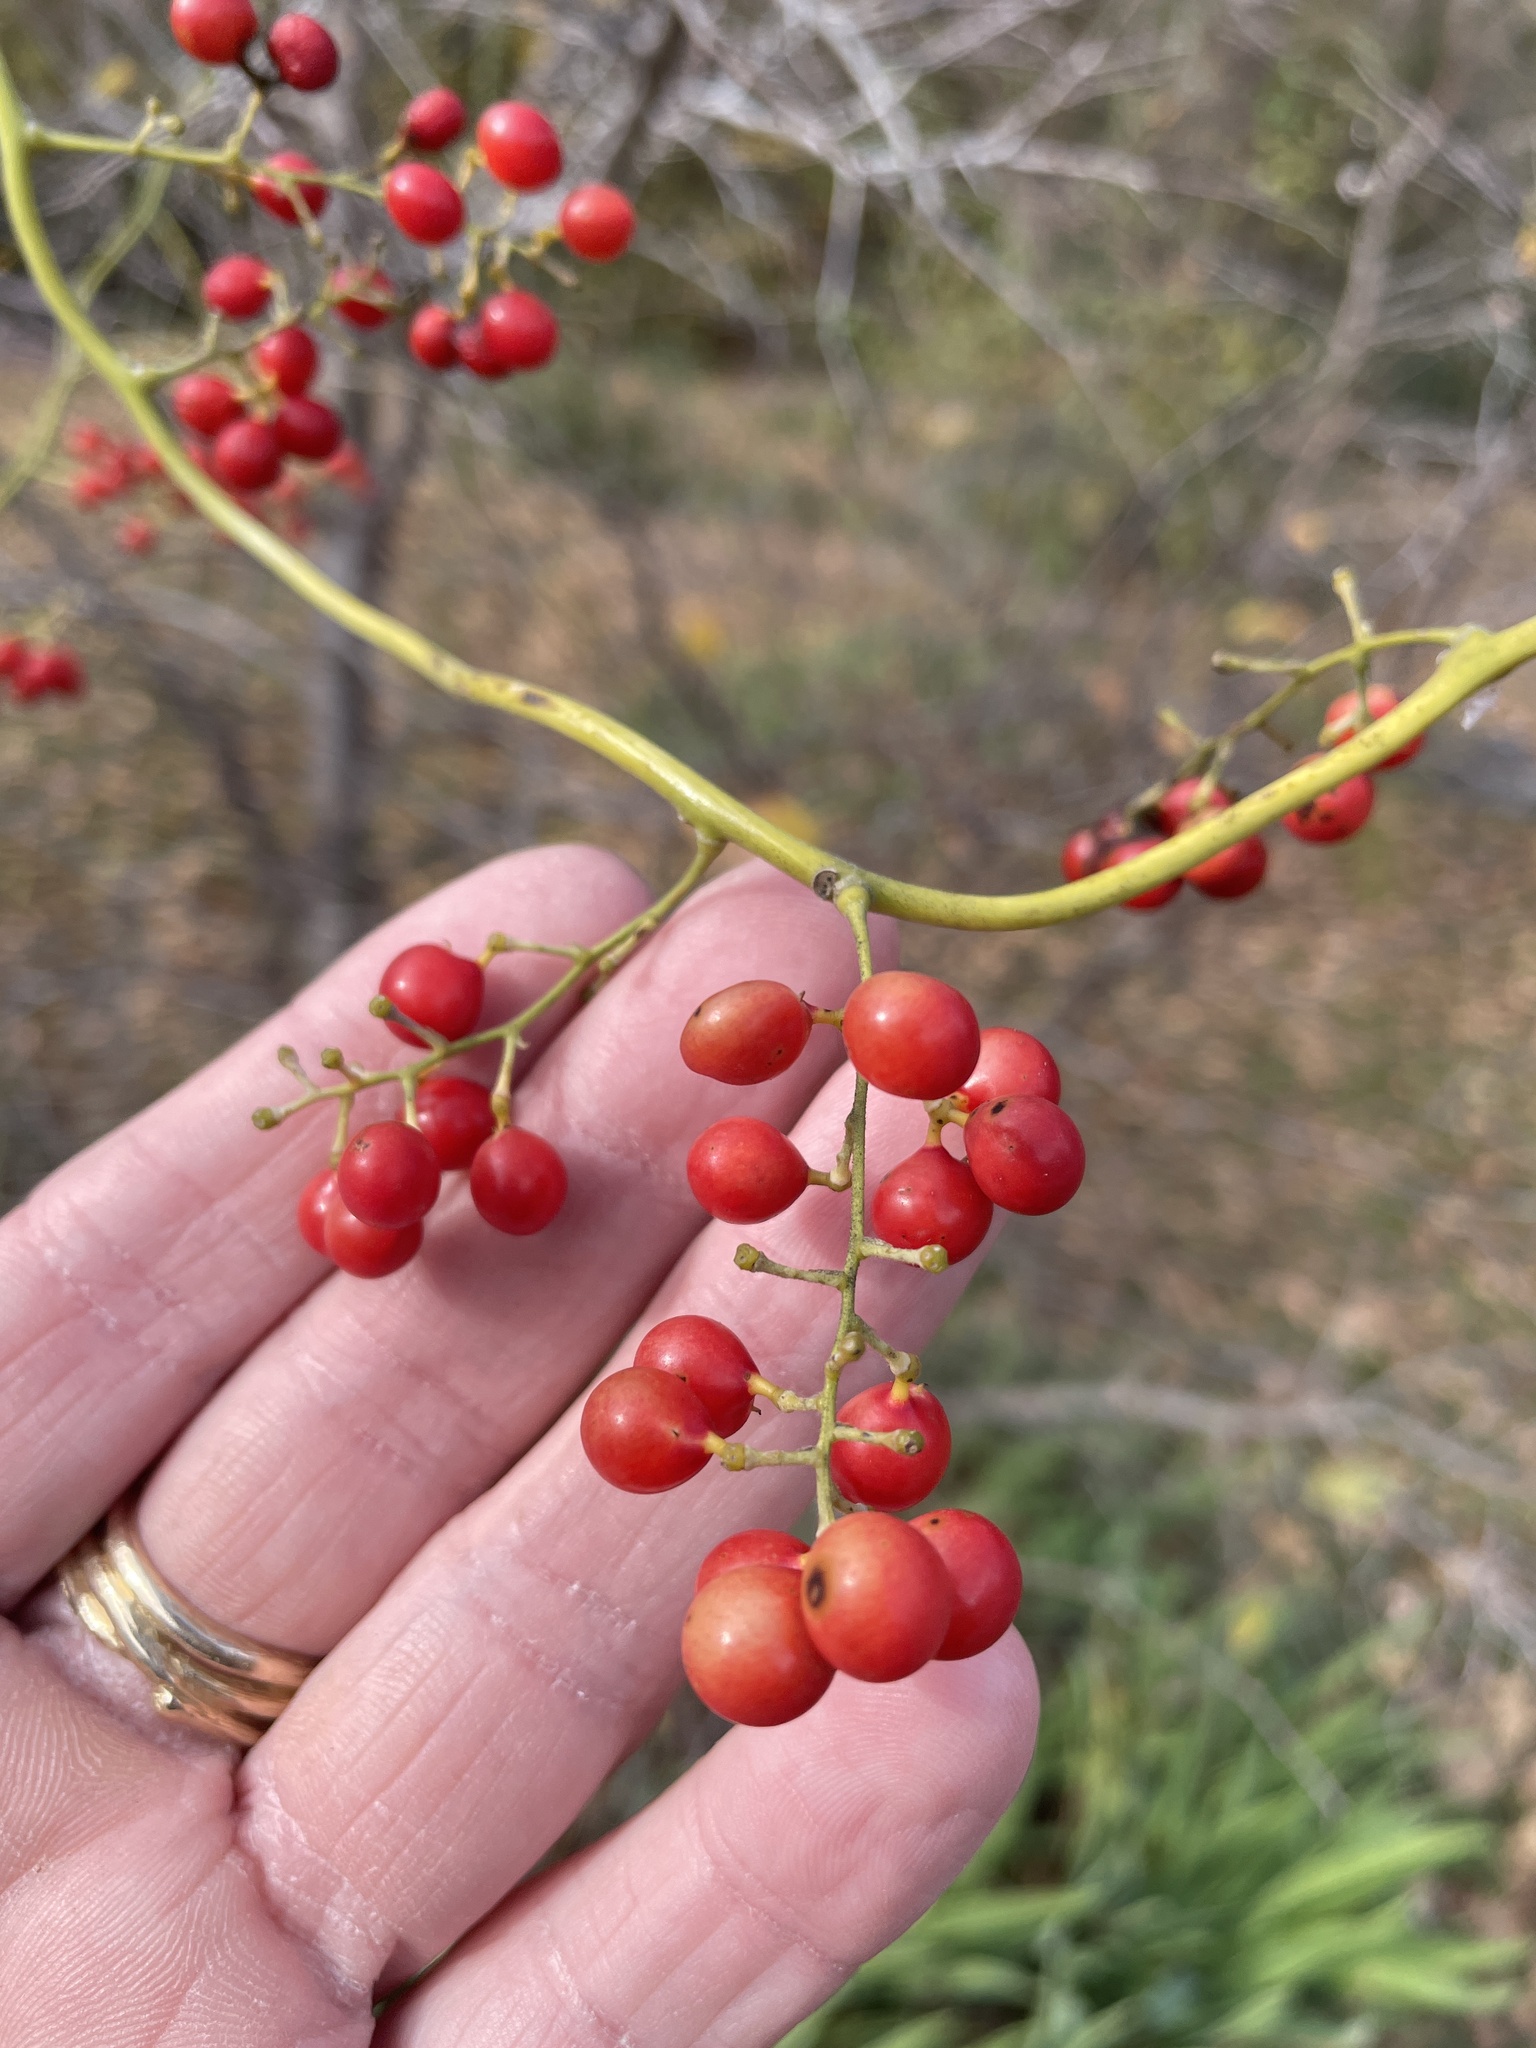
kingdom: Plantae
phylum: Tracheophyta
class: Magnoliopsida
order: Ranunculales
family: Menispermaceae
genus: Cocculus
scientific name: Cocculus carolinus
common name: Carolina moonseed
